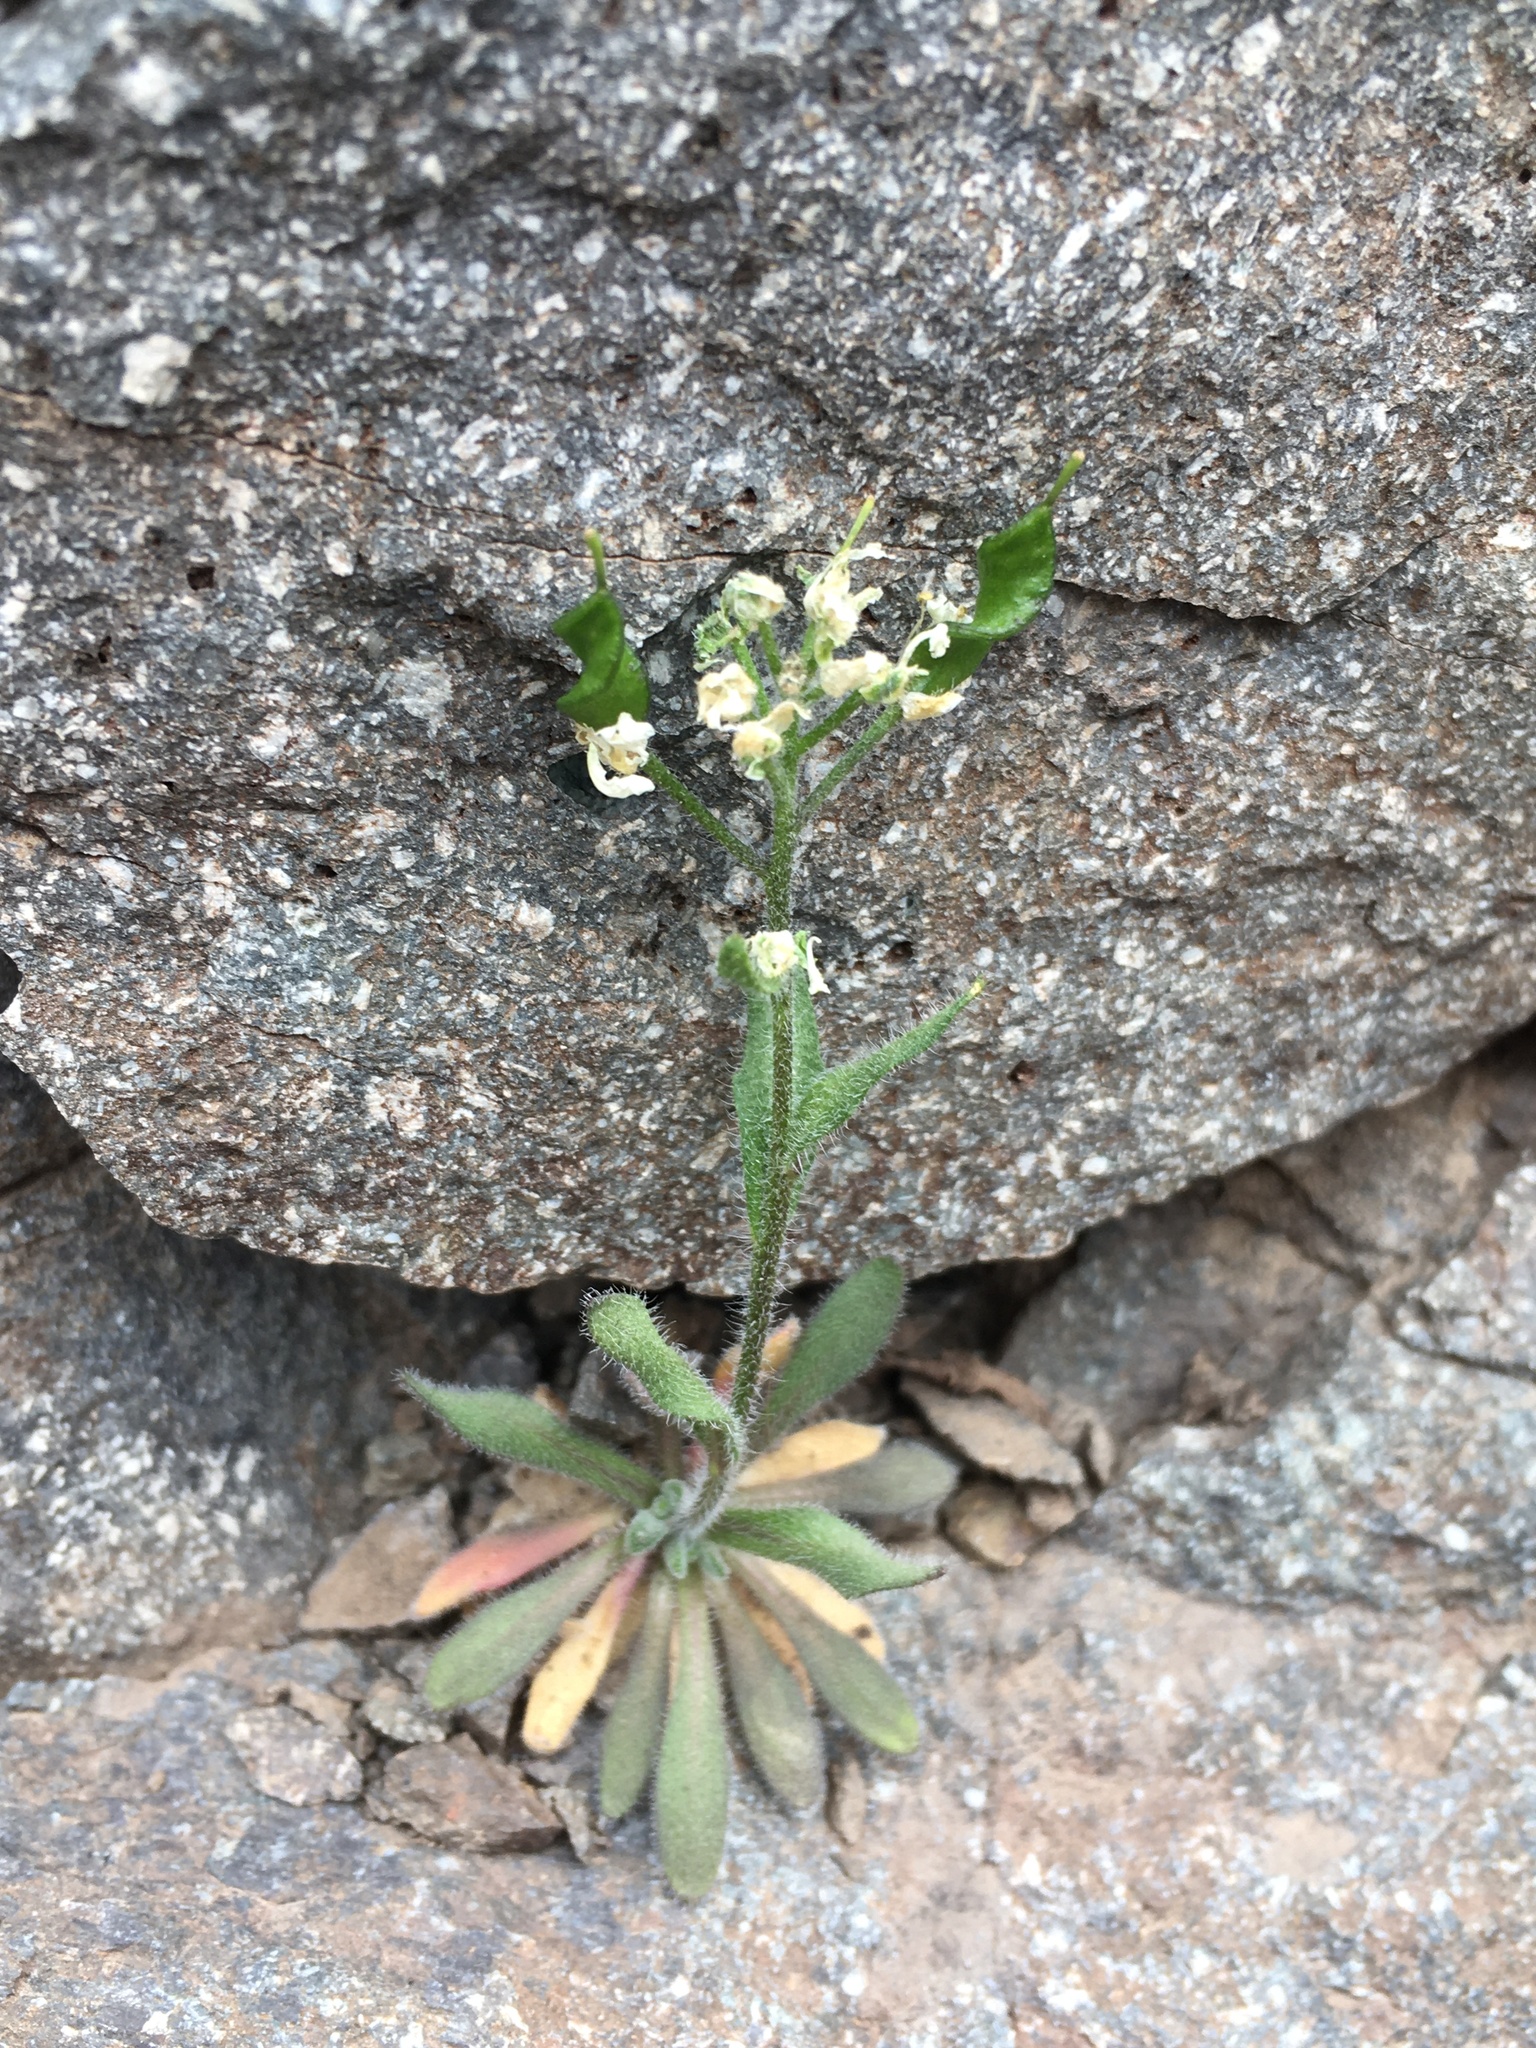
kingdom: Plantae
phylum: Tracheophyta
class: Magnoliopsida
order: Brassicales
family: Brassicaceae
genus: Draba
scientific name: Draba gilliesii
